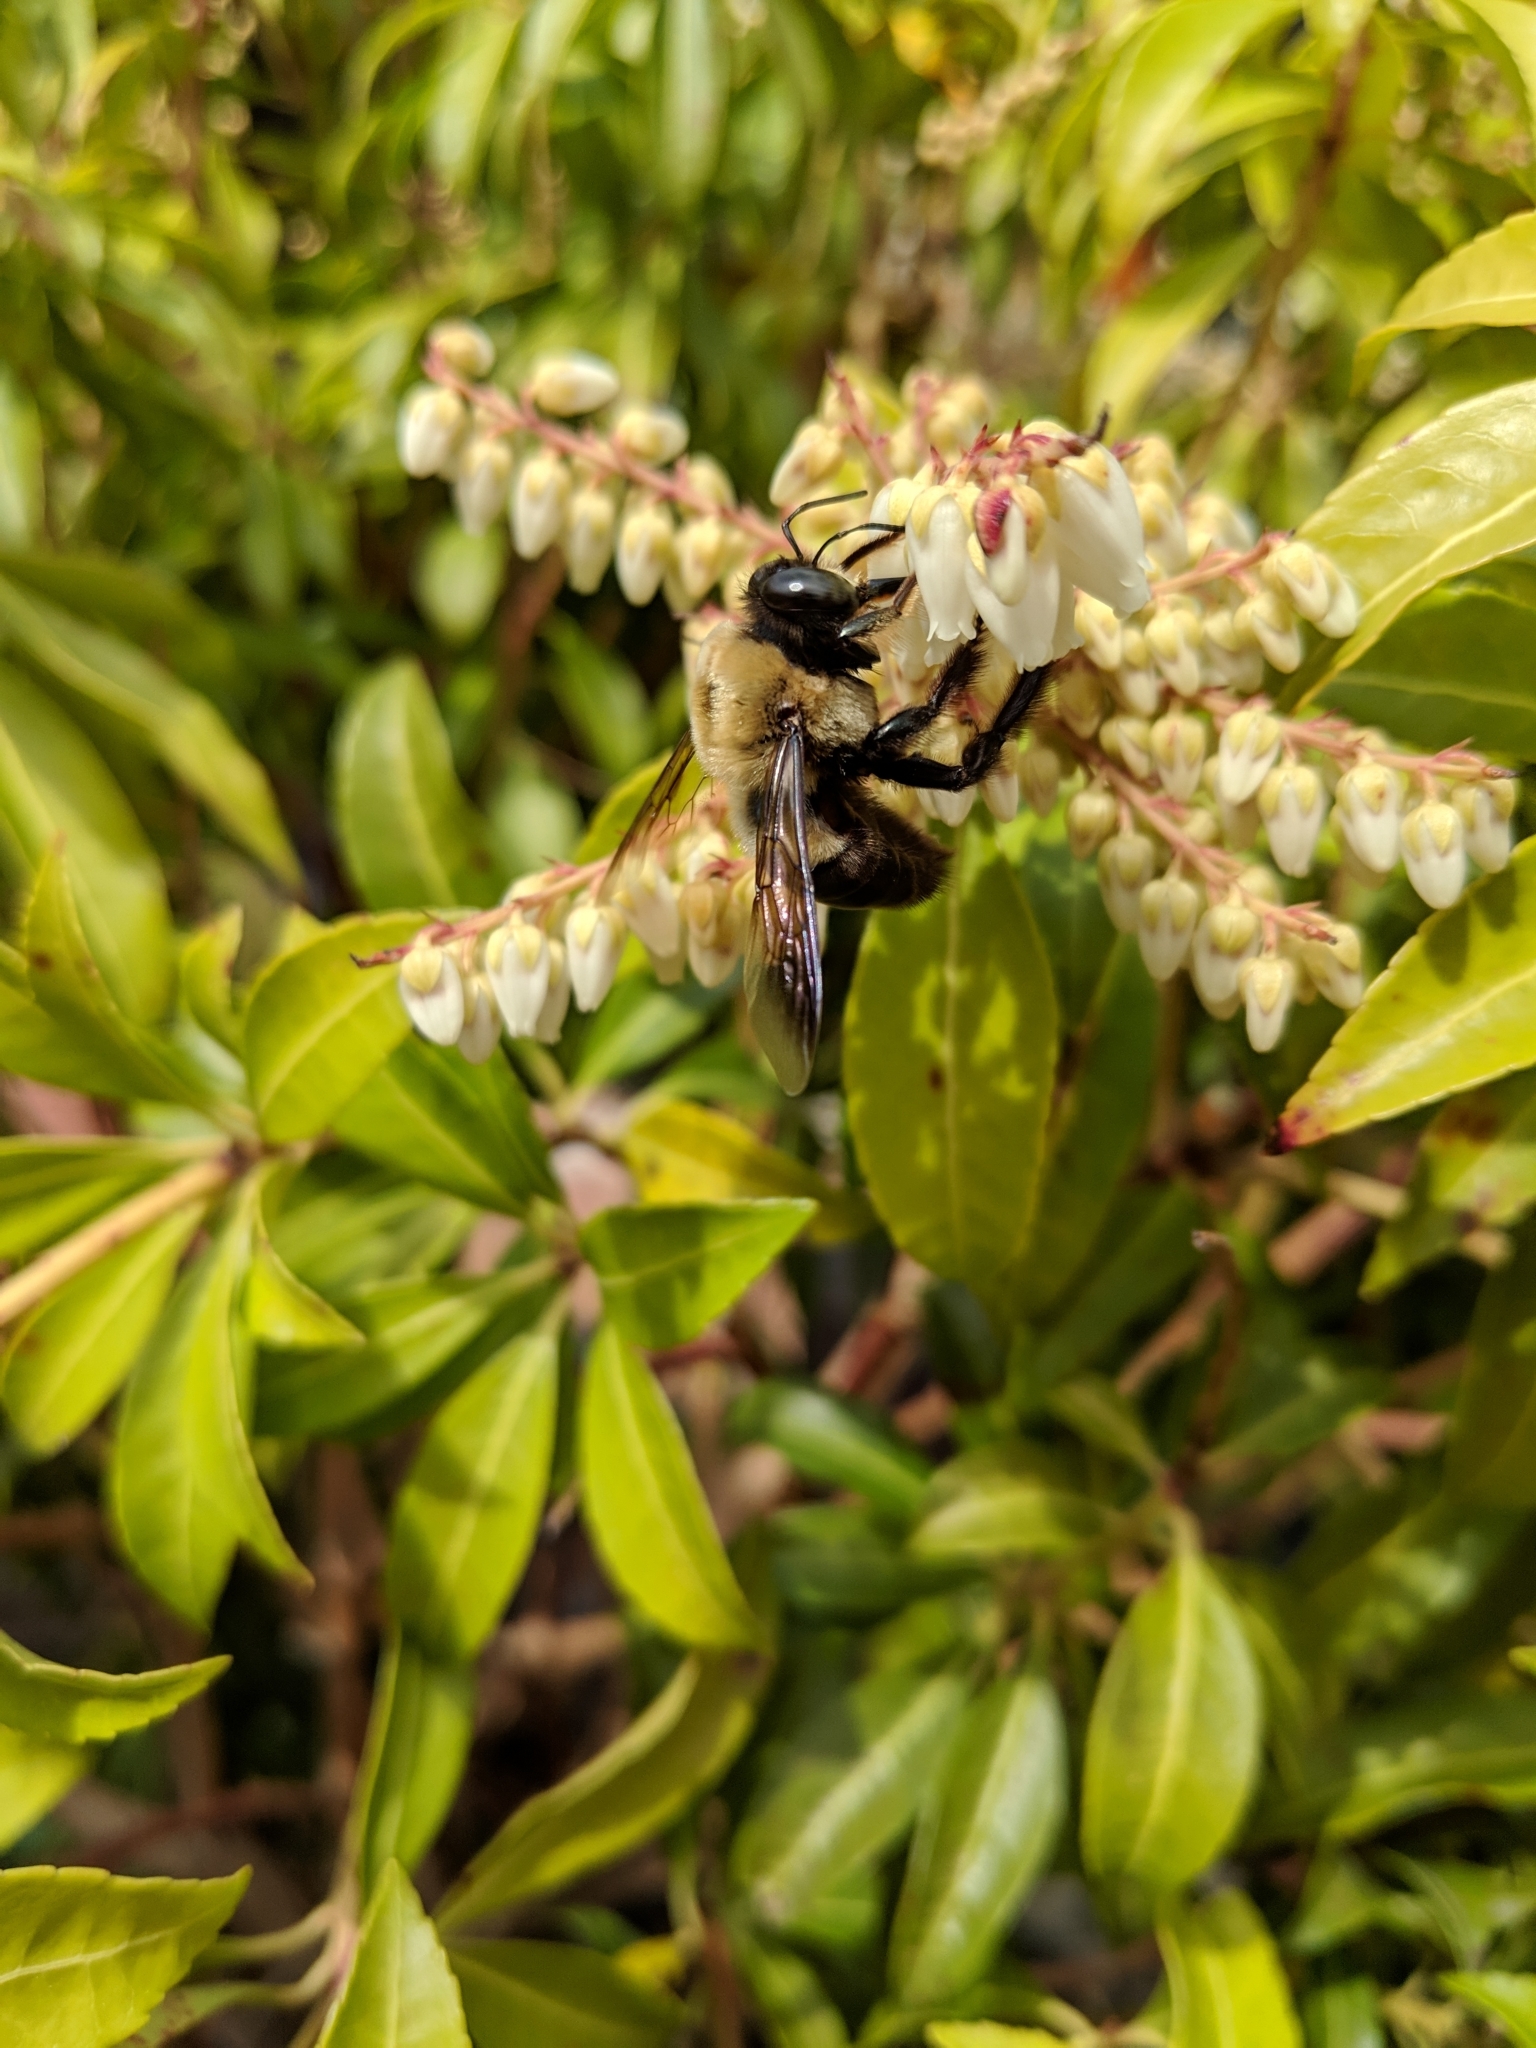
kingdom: Animalia
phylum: Arthropoda
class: Insecta
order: Hymenoptera
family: Apidae
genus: Xylocopa
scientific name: Xylocopa virginica
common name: Carpenter bee
